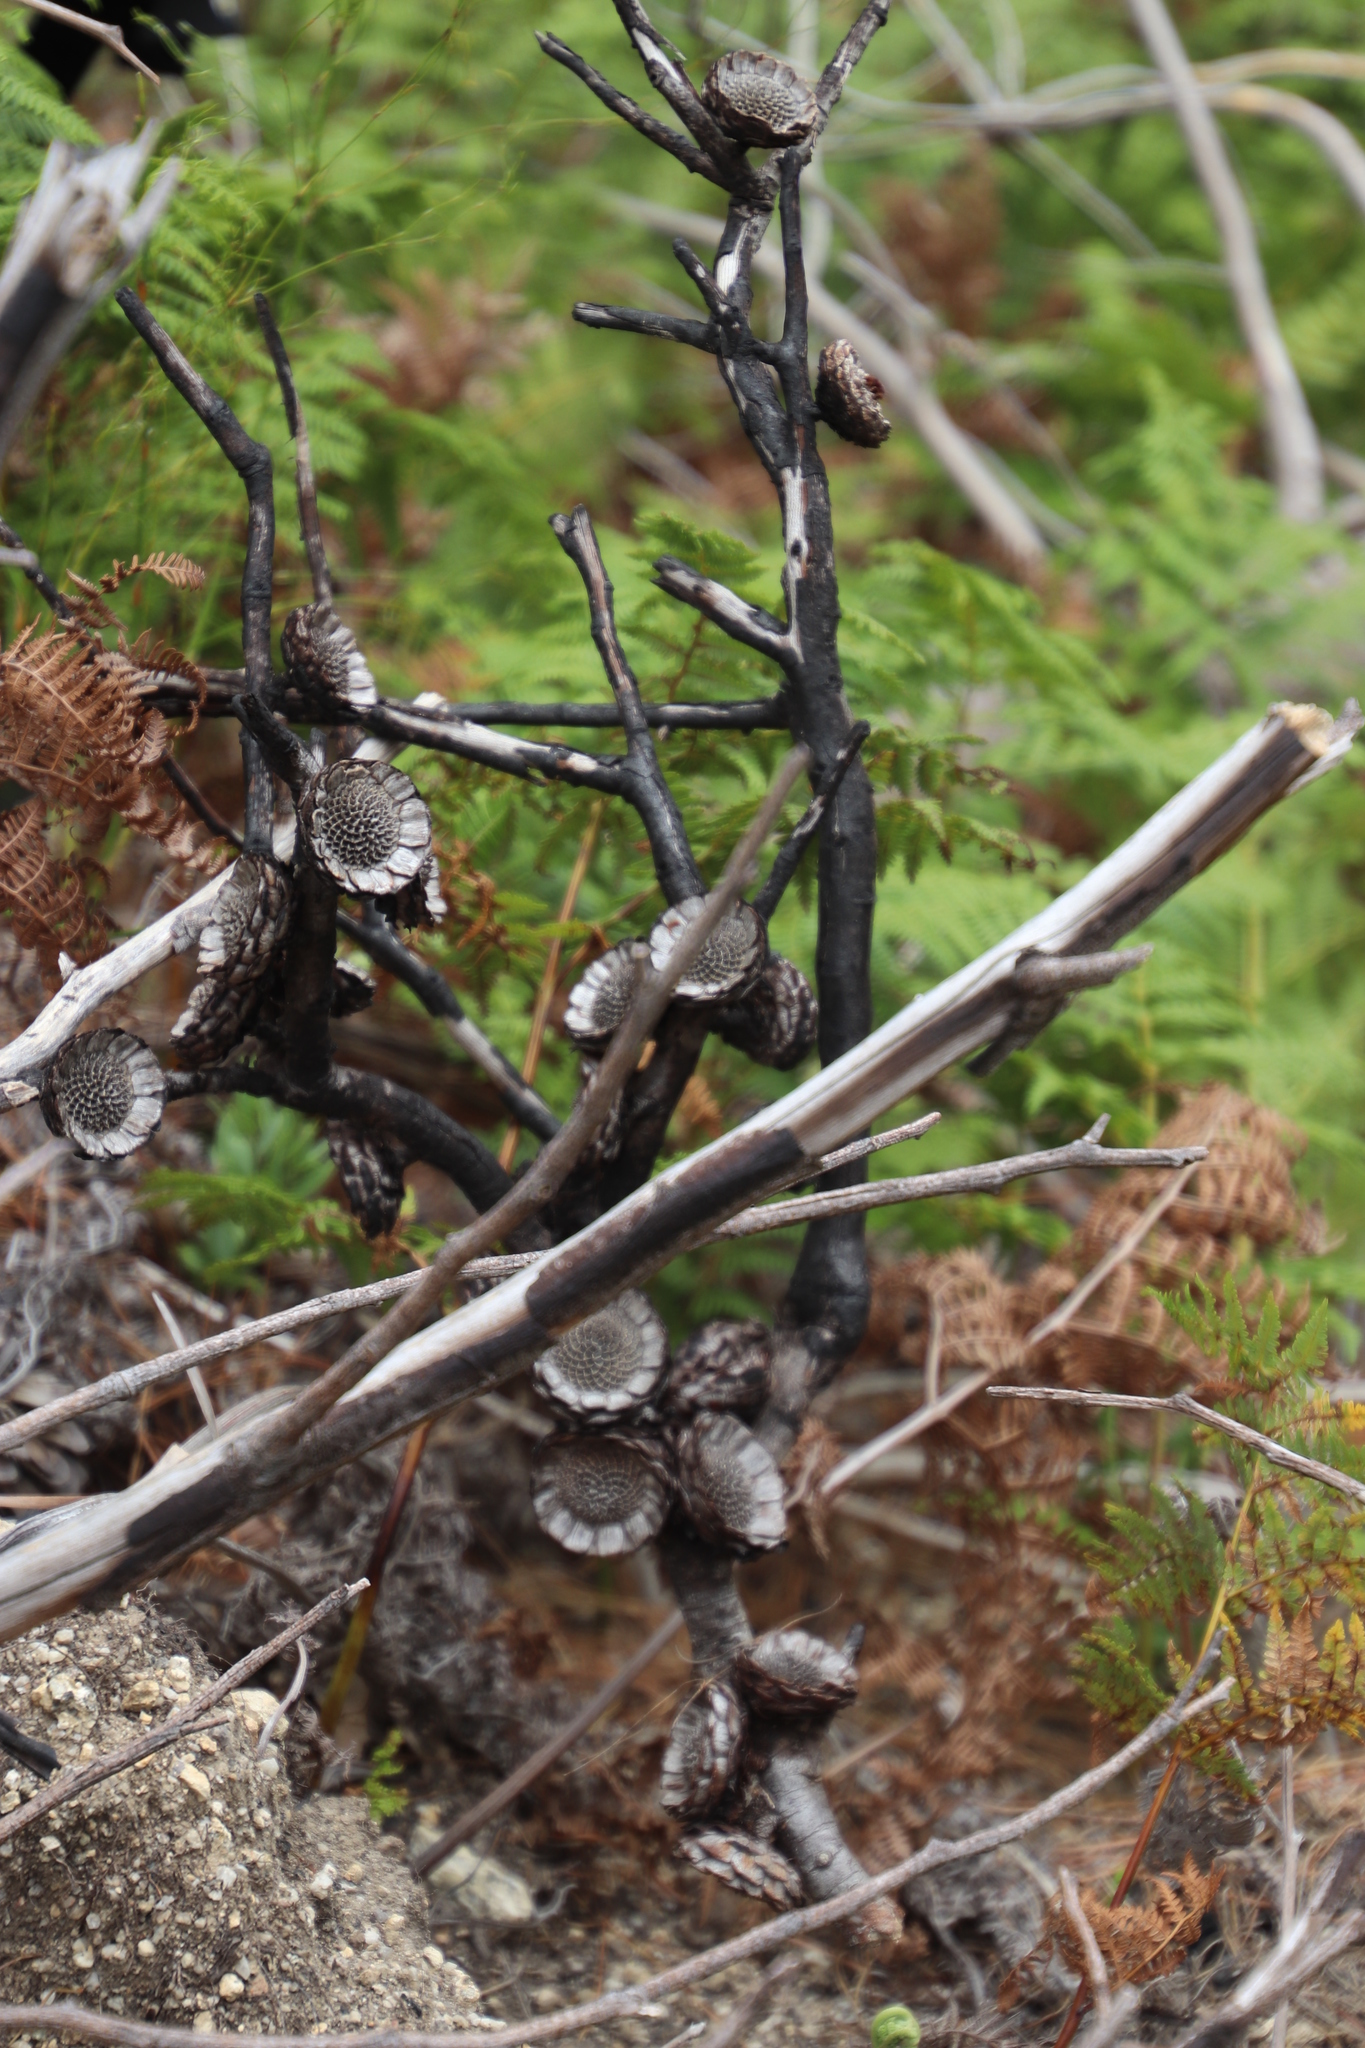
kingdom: Plantae
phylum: Tracheophyta
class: Magnoliopsida
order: Proteales
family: Proteaceae
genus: Protea
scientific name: Protea amplexicaulis
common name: Clasping-leaf sugarbush
